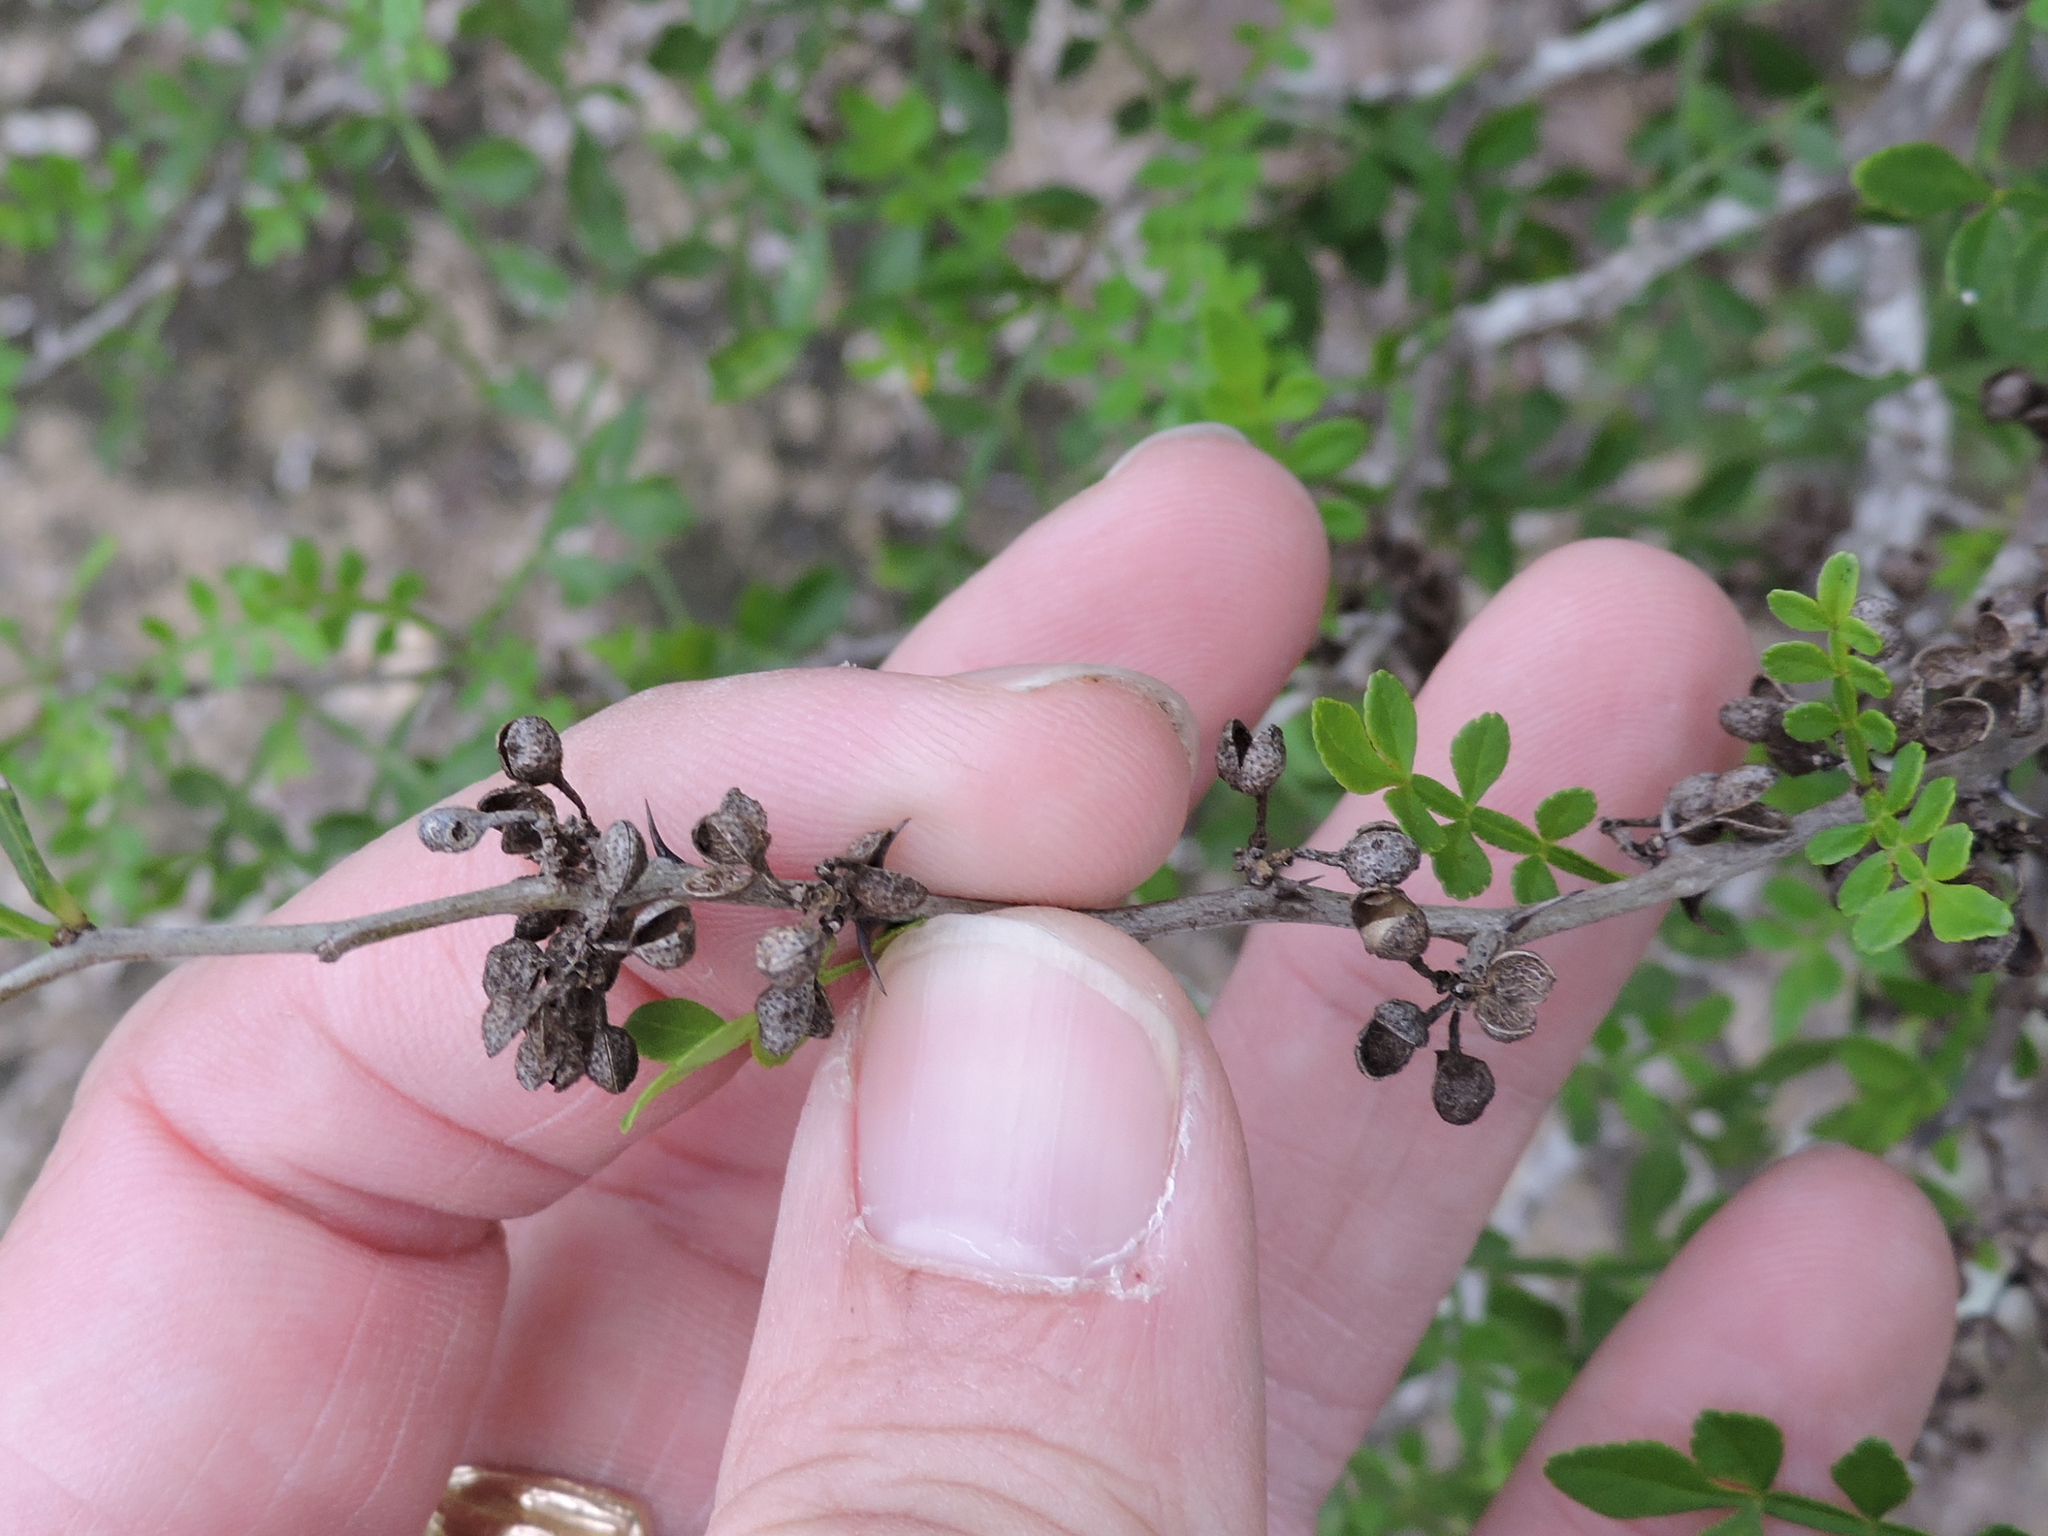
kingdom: Plantae
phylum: Tracheophyta
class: Magnoliopsida
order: Sapindales
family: Rutaceae
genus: Zanthoxylum
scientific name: Zanthoxylum fagara
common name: Lime prickly-ash
